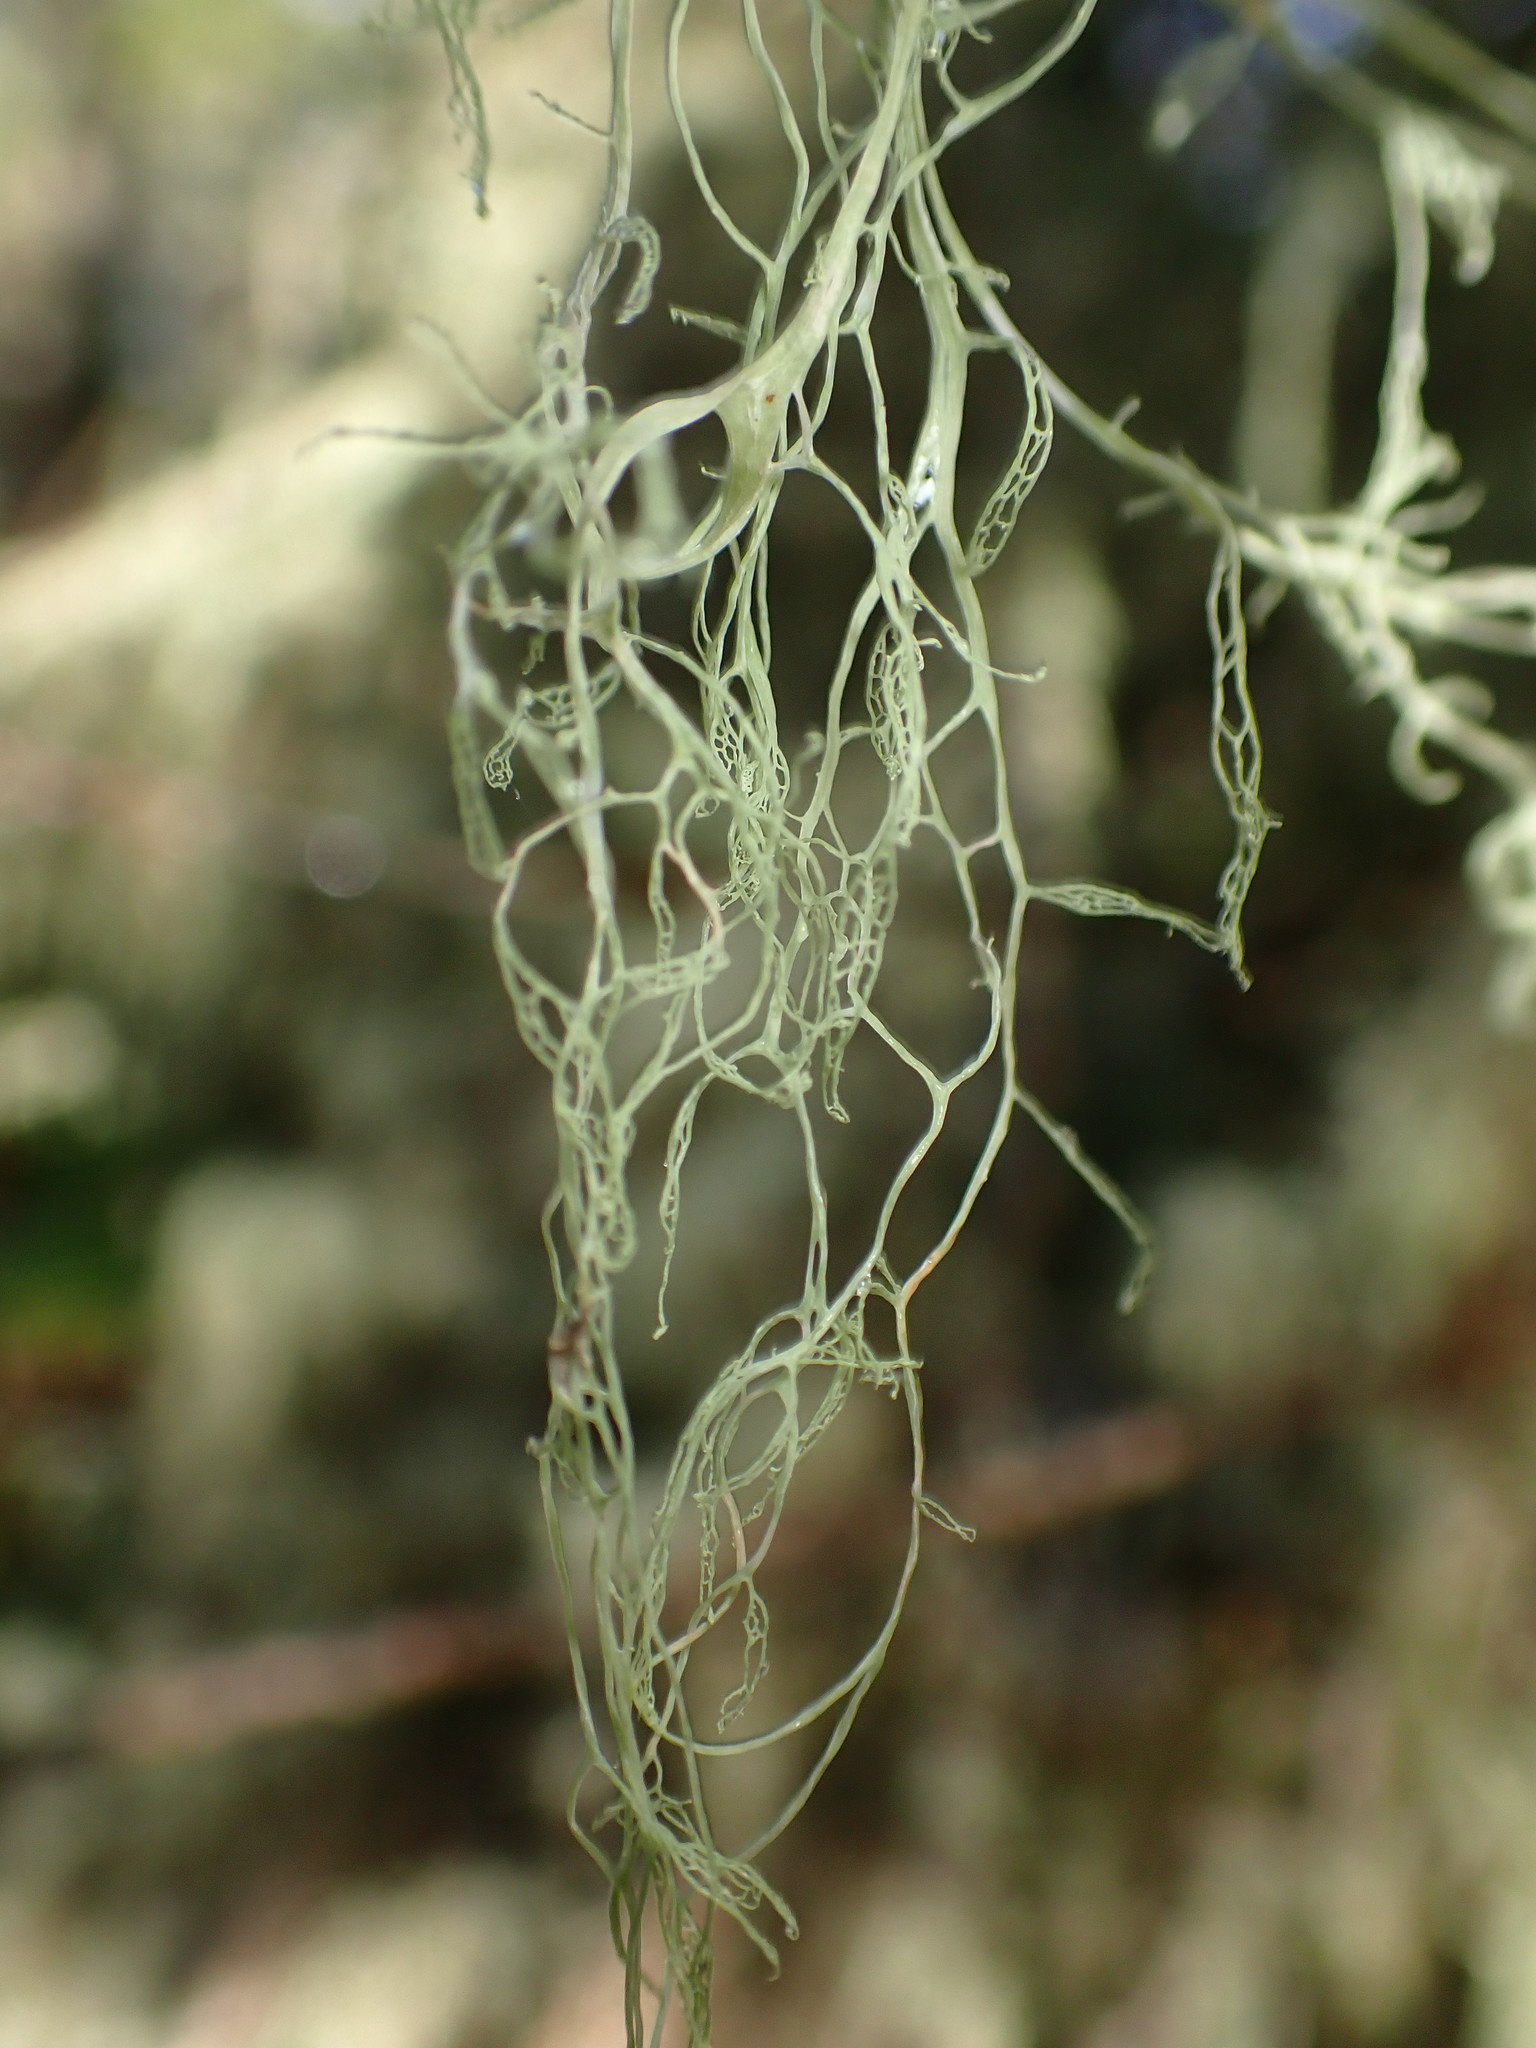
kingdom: Fungi
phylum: Ascomycota
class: Lecanoromycetes
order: Lecanorales
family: Ramalinaceae
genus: Ramalina
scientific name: Ramalina menziesii
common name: Lace lichen
